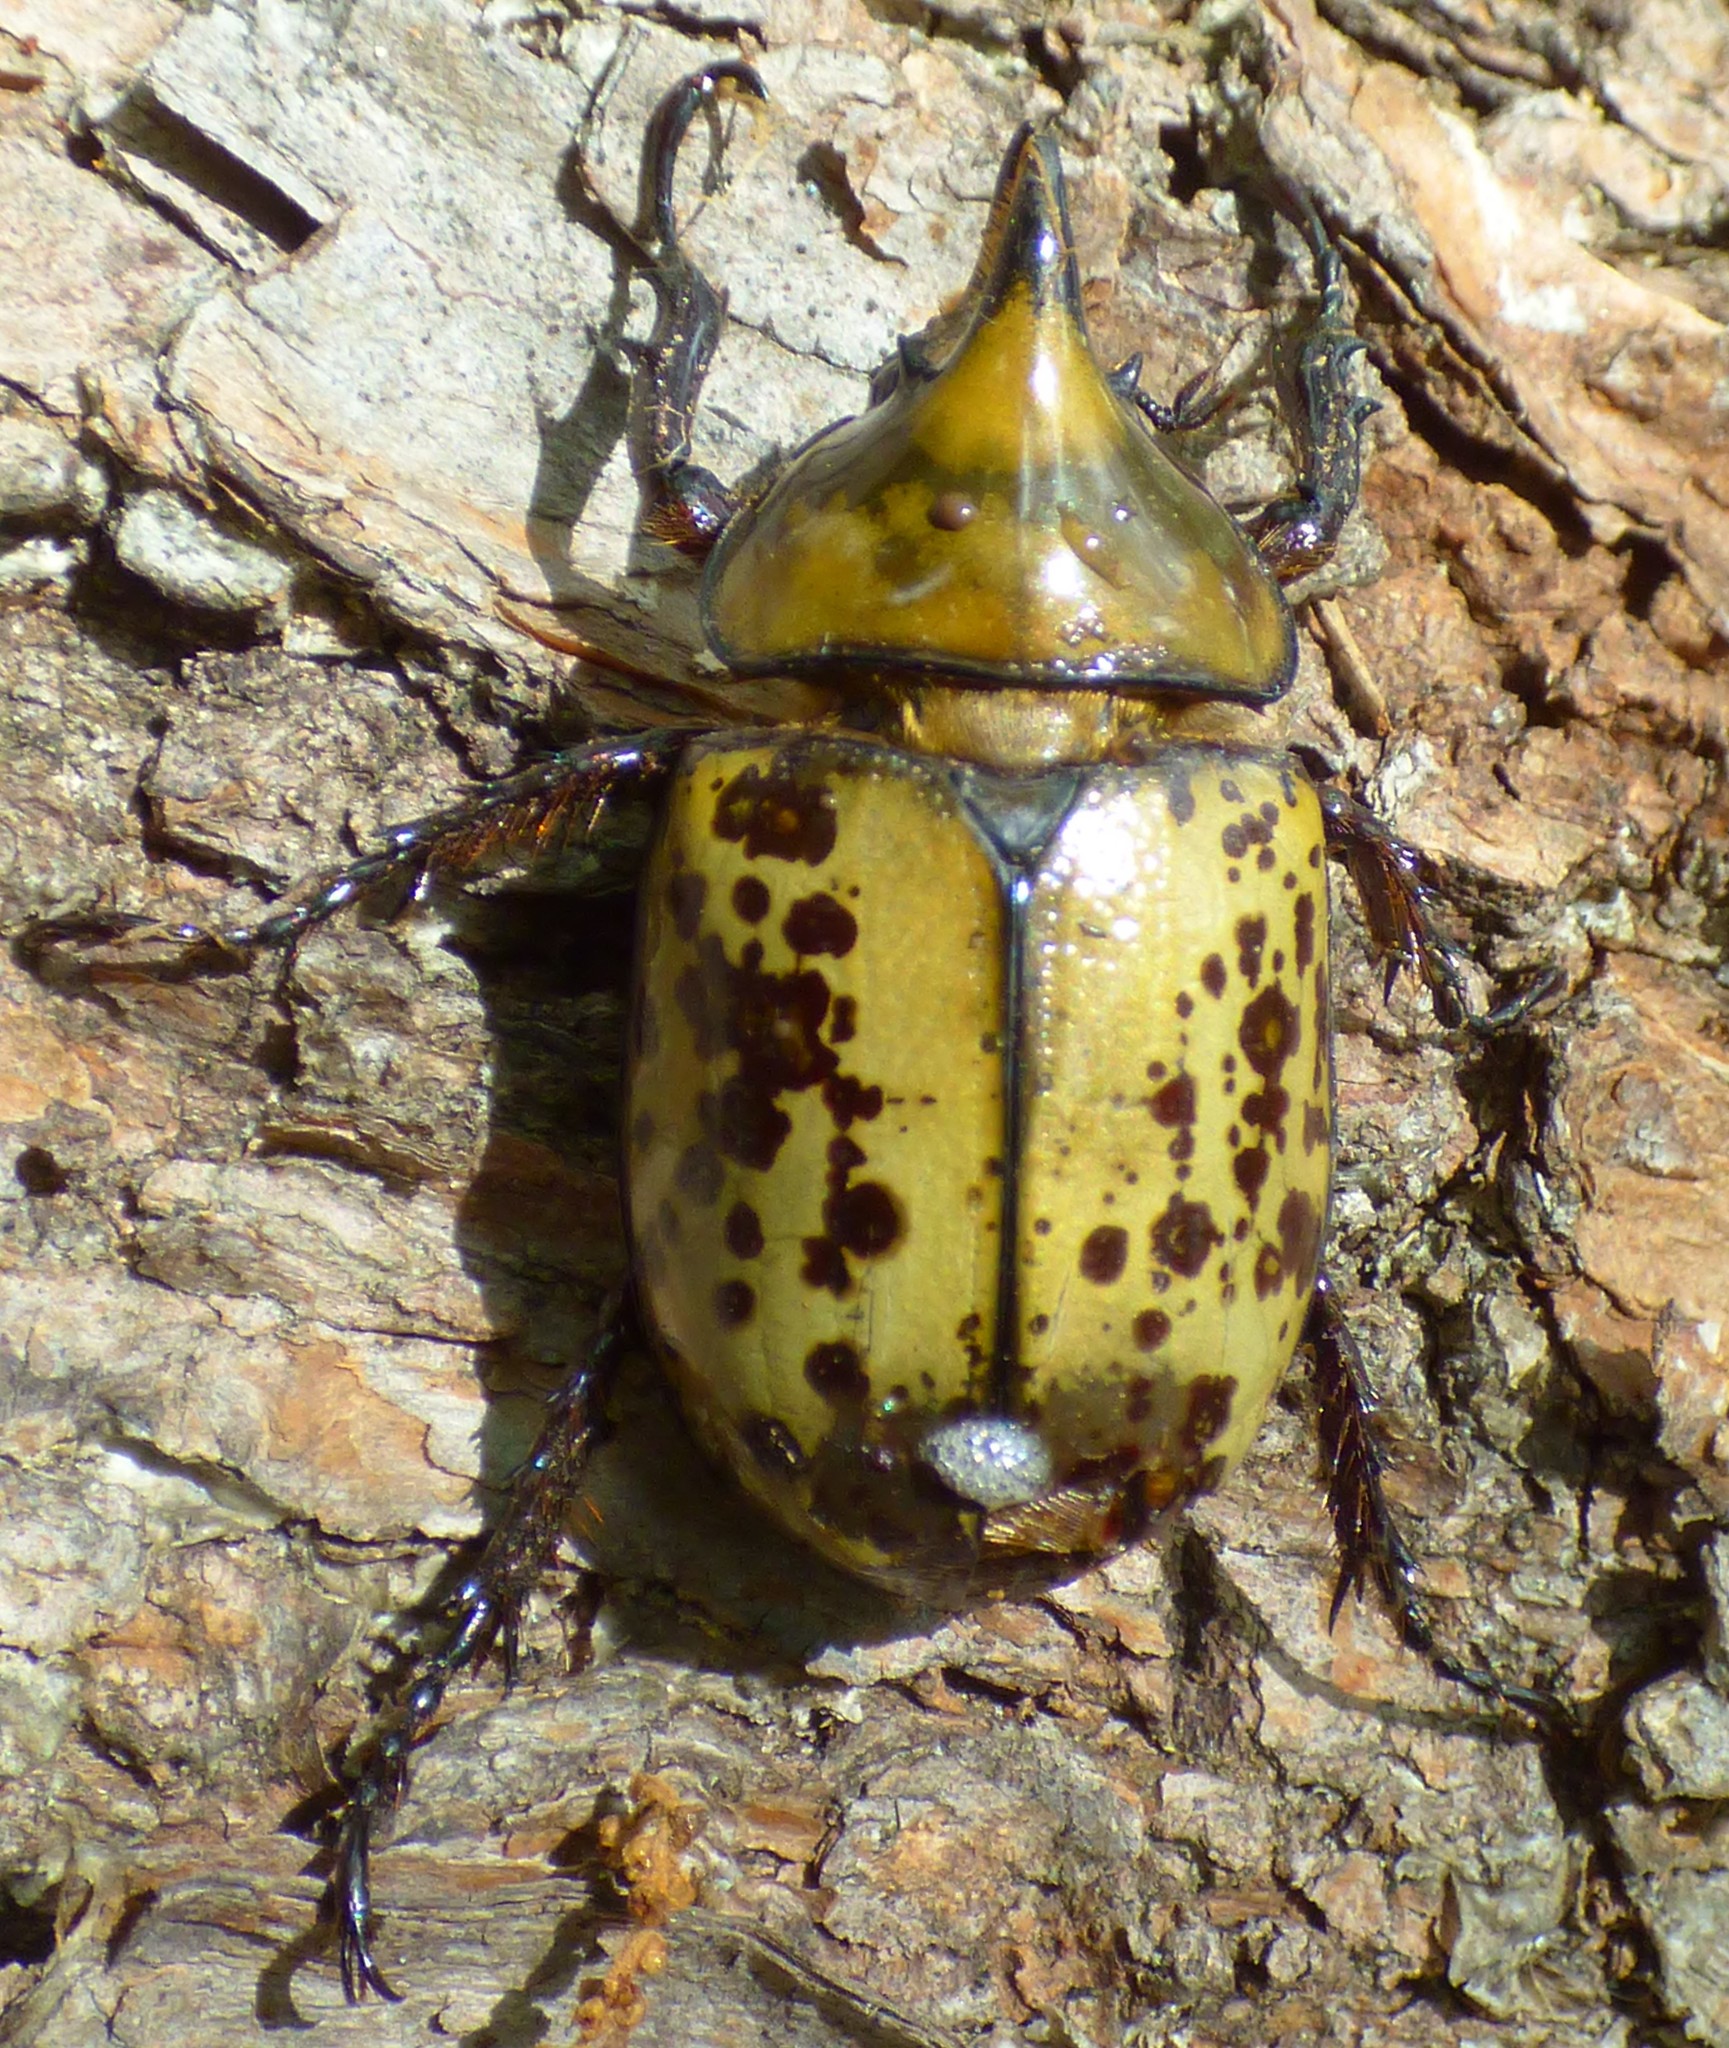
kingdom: Animalia
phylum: Arthropoda
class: Insecta
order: Coleoptera
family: Scarabaeidae
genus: Dynastes
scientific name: Dynastes tityus
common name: Eastern hercules beetle
